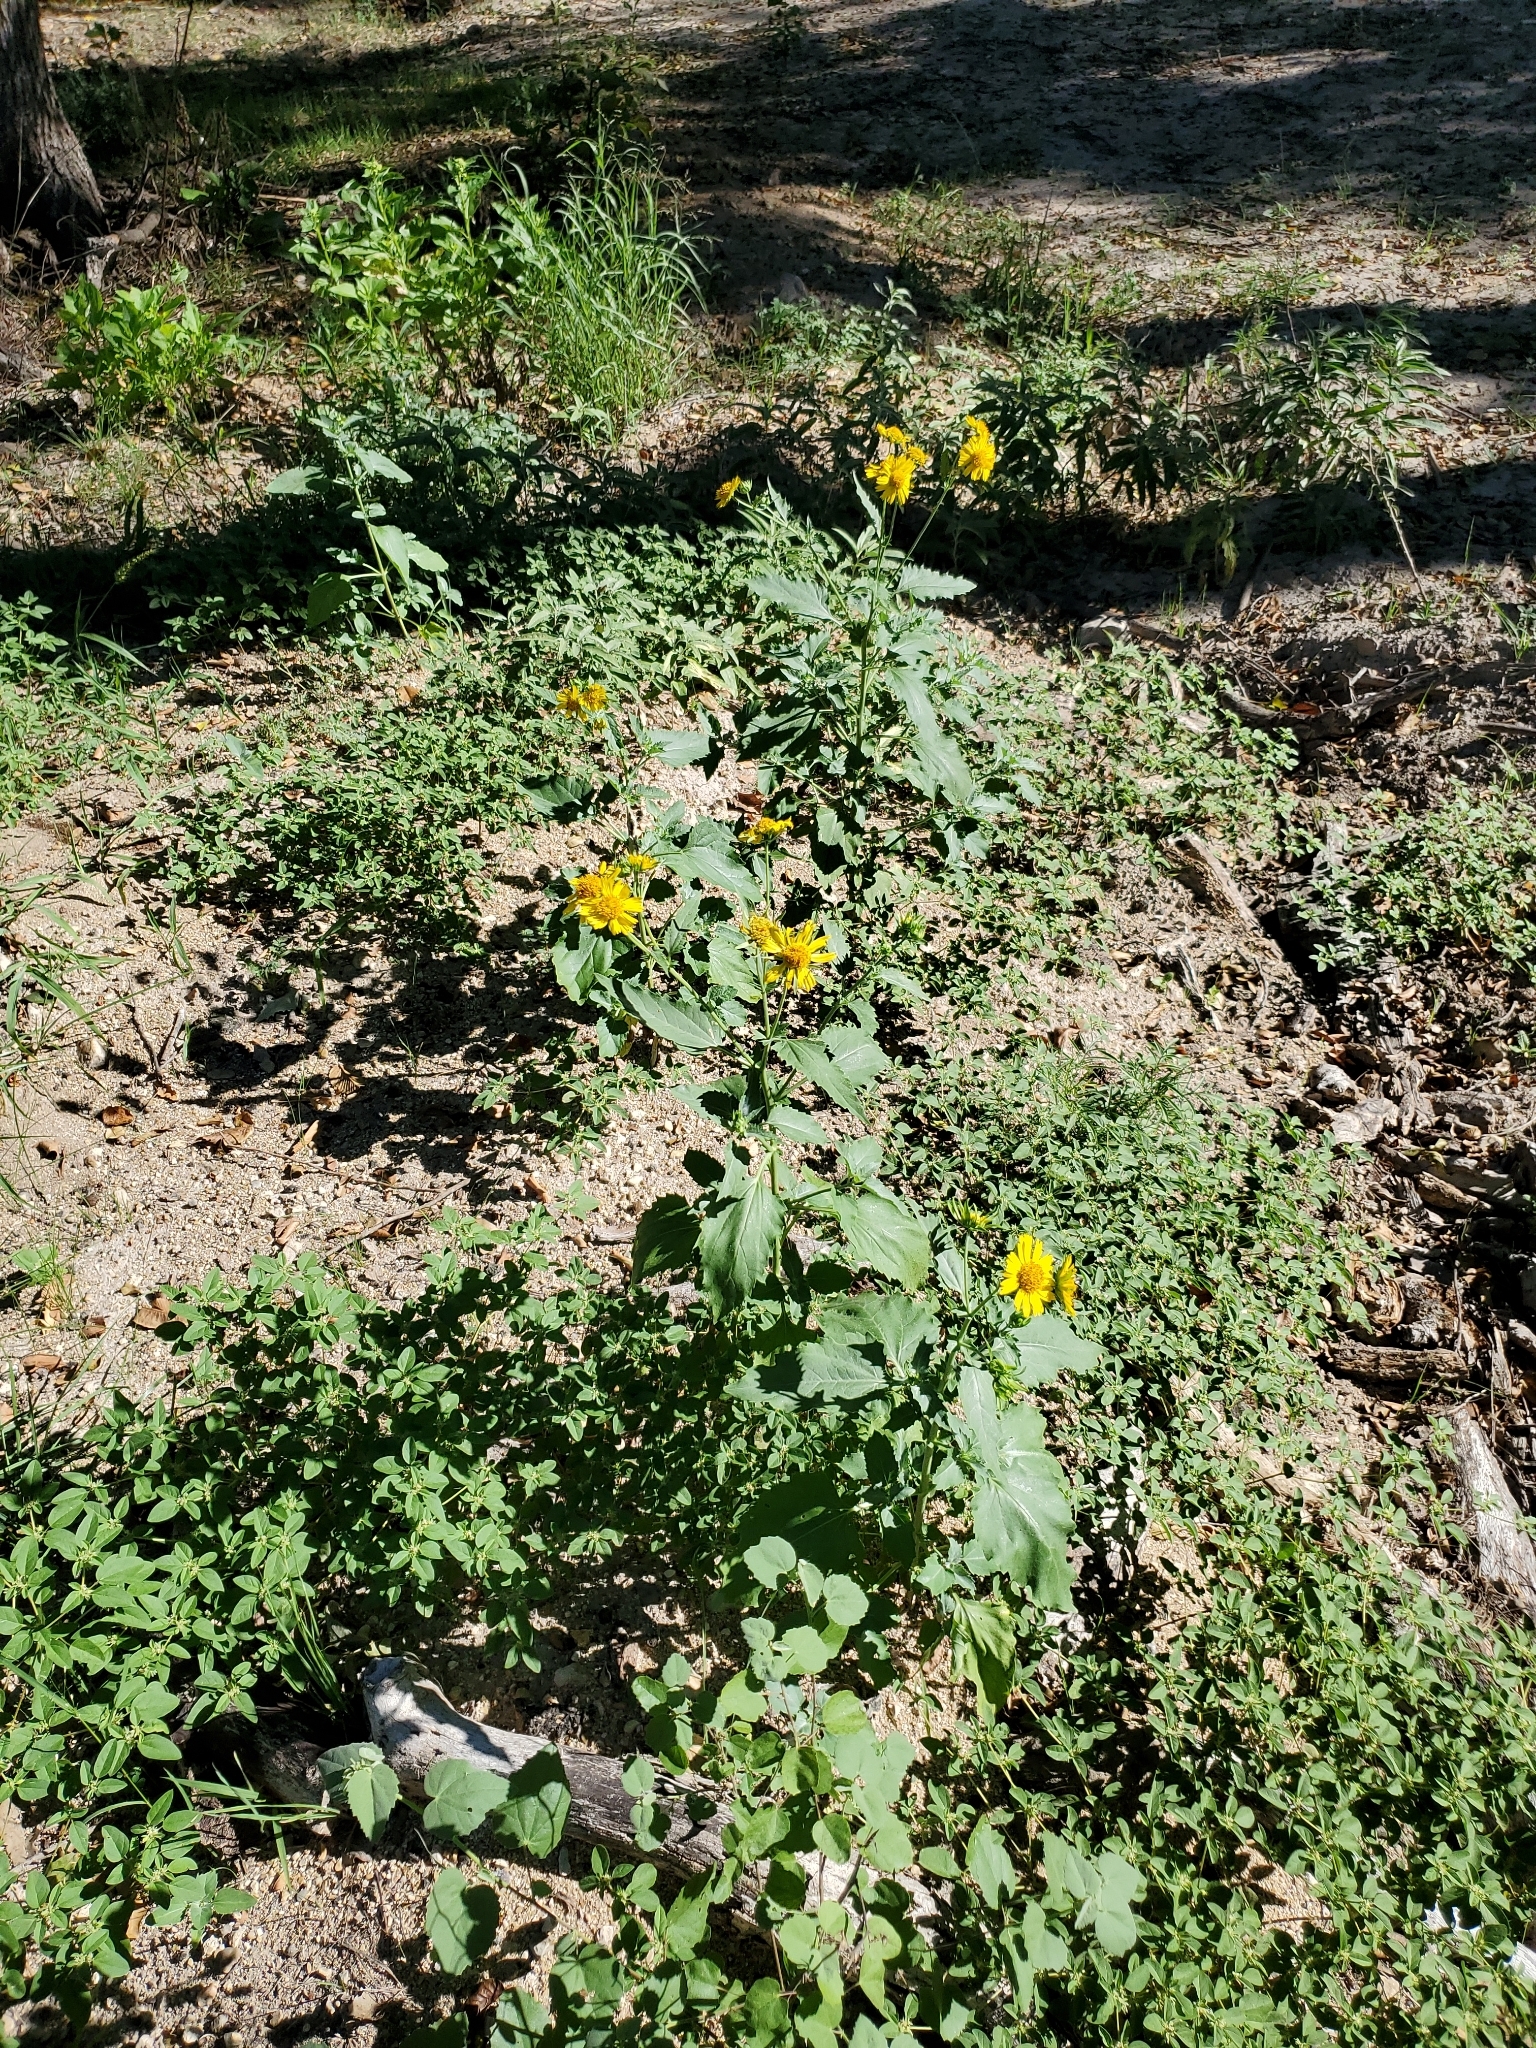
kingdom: Plantae
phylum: Tracheophyta
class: Magnoliopsida
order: Asterales
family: Asteraceae
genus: Verbesina
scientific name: Verbesina encelioides
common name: Golden crownbeard
